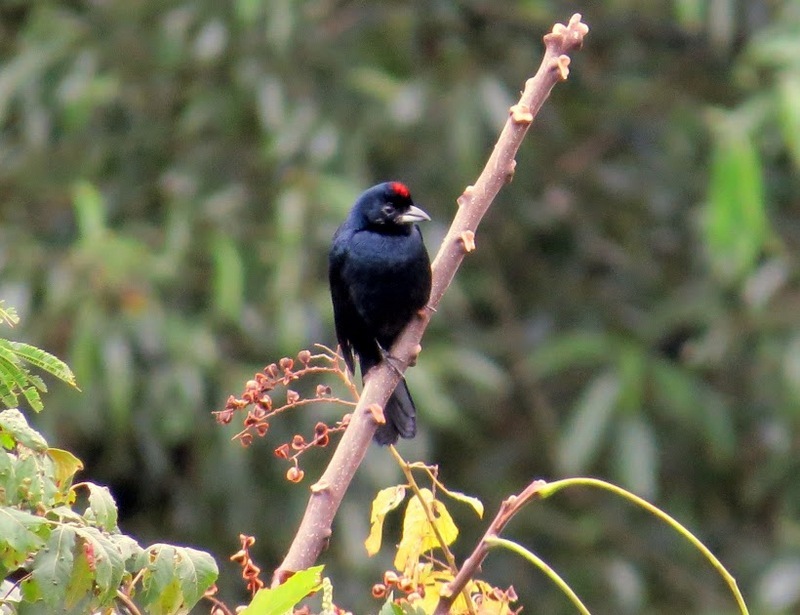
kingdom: Animalia
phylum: Chordata
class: Aves
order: Passeriformes
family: Thraupidae
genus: Tachyphonus
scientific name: Tachyphonus coronatus
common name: Ruby-crowned tanager
